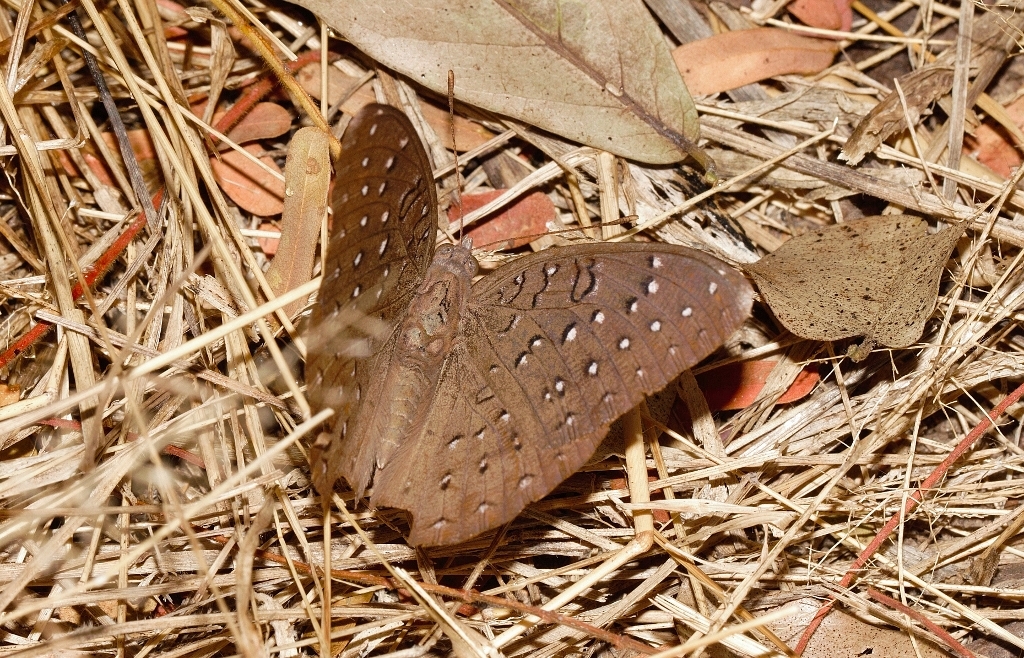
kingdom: Animalia
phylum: Arthropoda
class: Insecta
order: Lepidoptera
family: Nymphalidae
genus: Hamanumida
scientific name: Hamanumida daedalus
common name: Guinea-fowl butterfly
